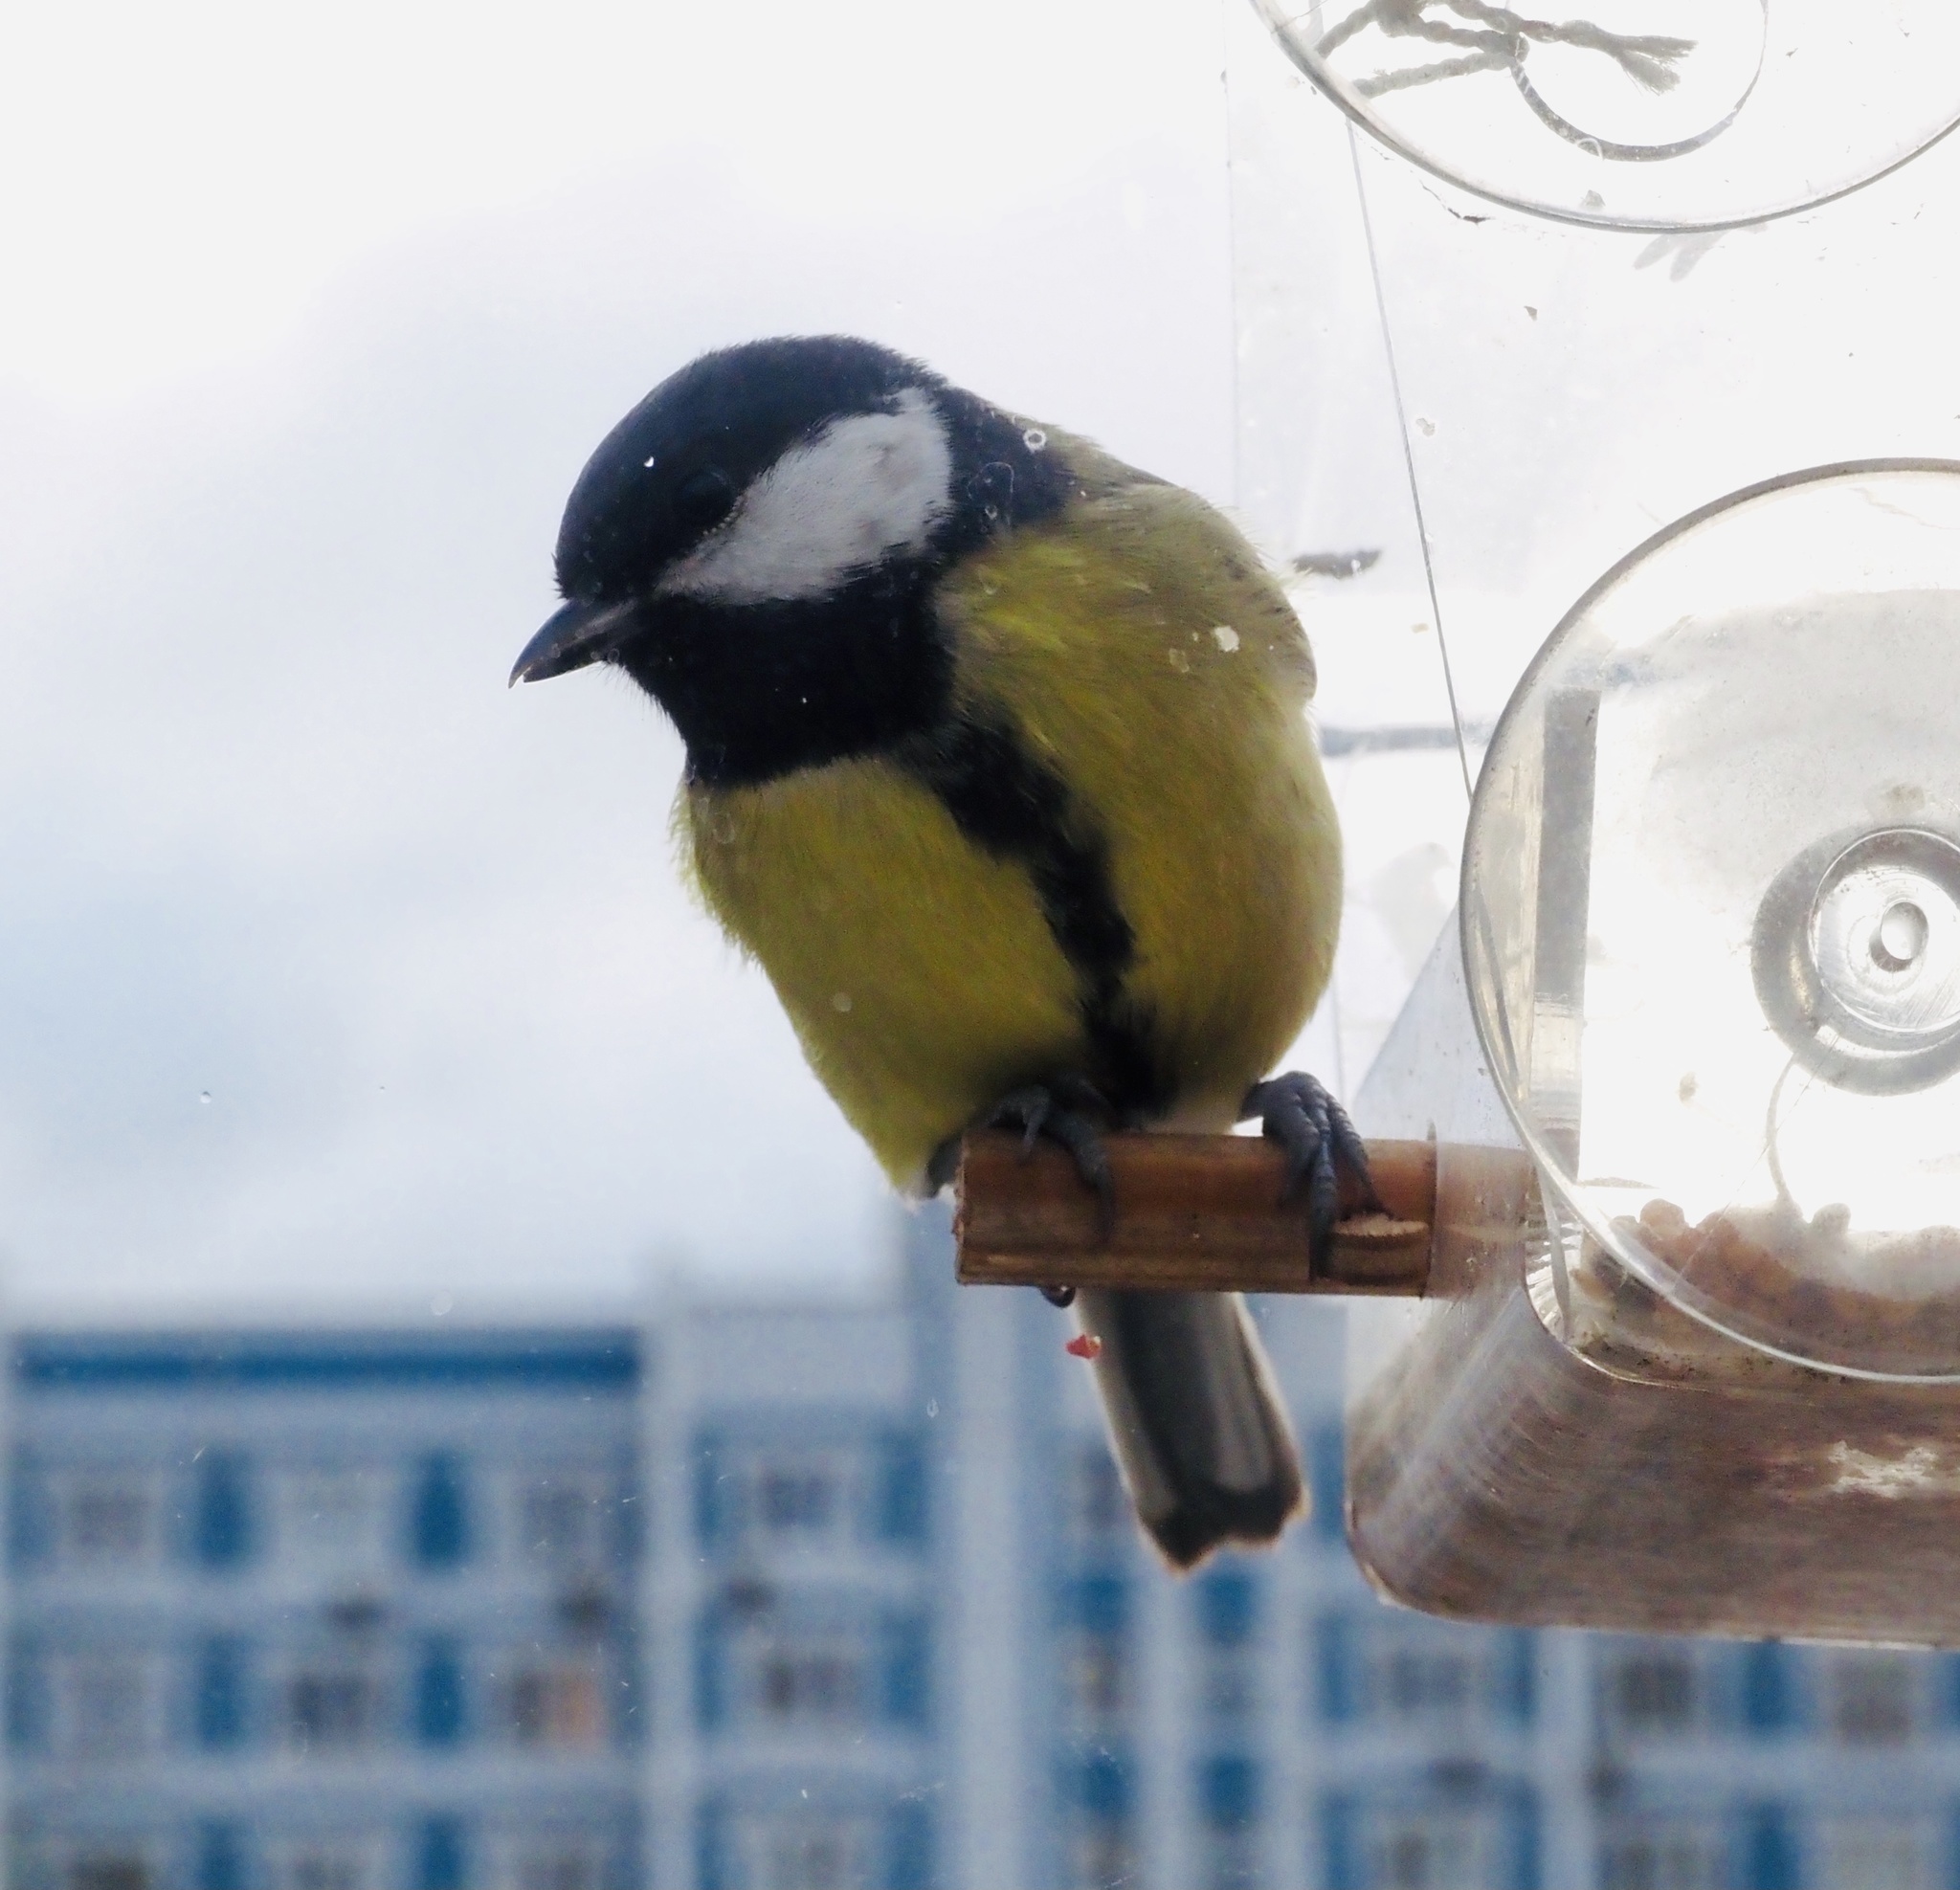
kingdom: Animalia
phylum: Chordata
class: Aves
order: Passeriformes
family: Paridae
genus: Parus
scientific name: Parus major
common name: Great tit
